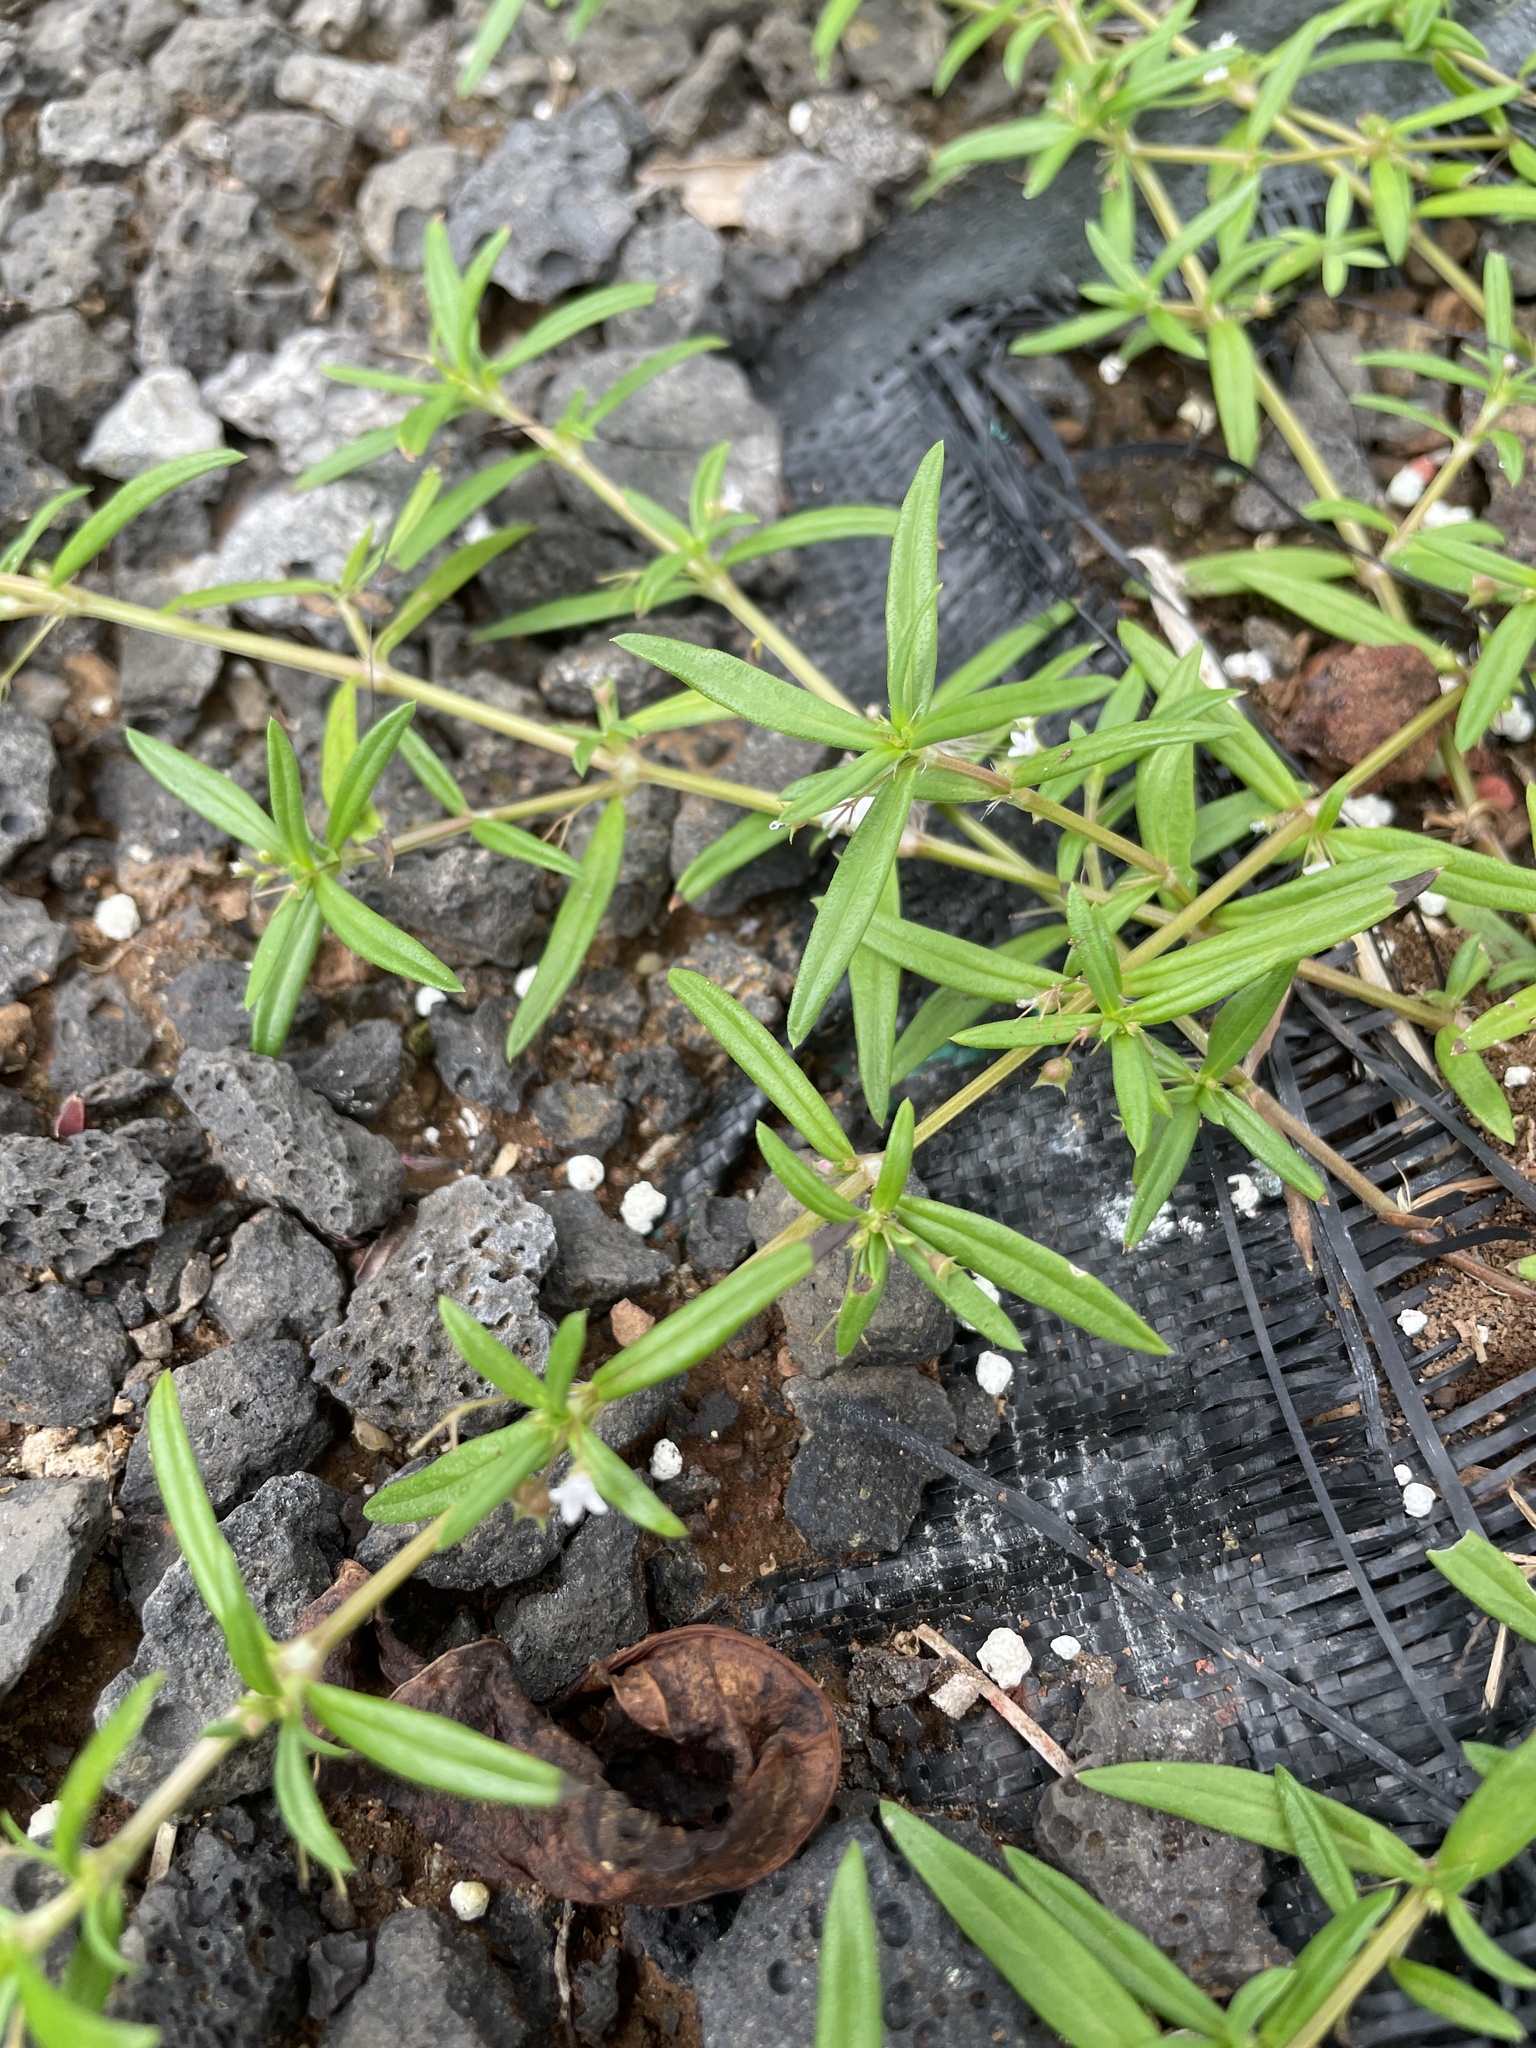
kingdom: Plantae
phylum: Tracheophyta
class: Magnoliopsida
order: Gentianales
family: Rubiaceae
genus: Oldenlandia
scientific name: Oldenlandia corymbosa
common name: Flat-top mille graines
